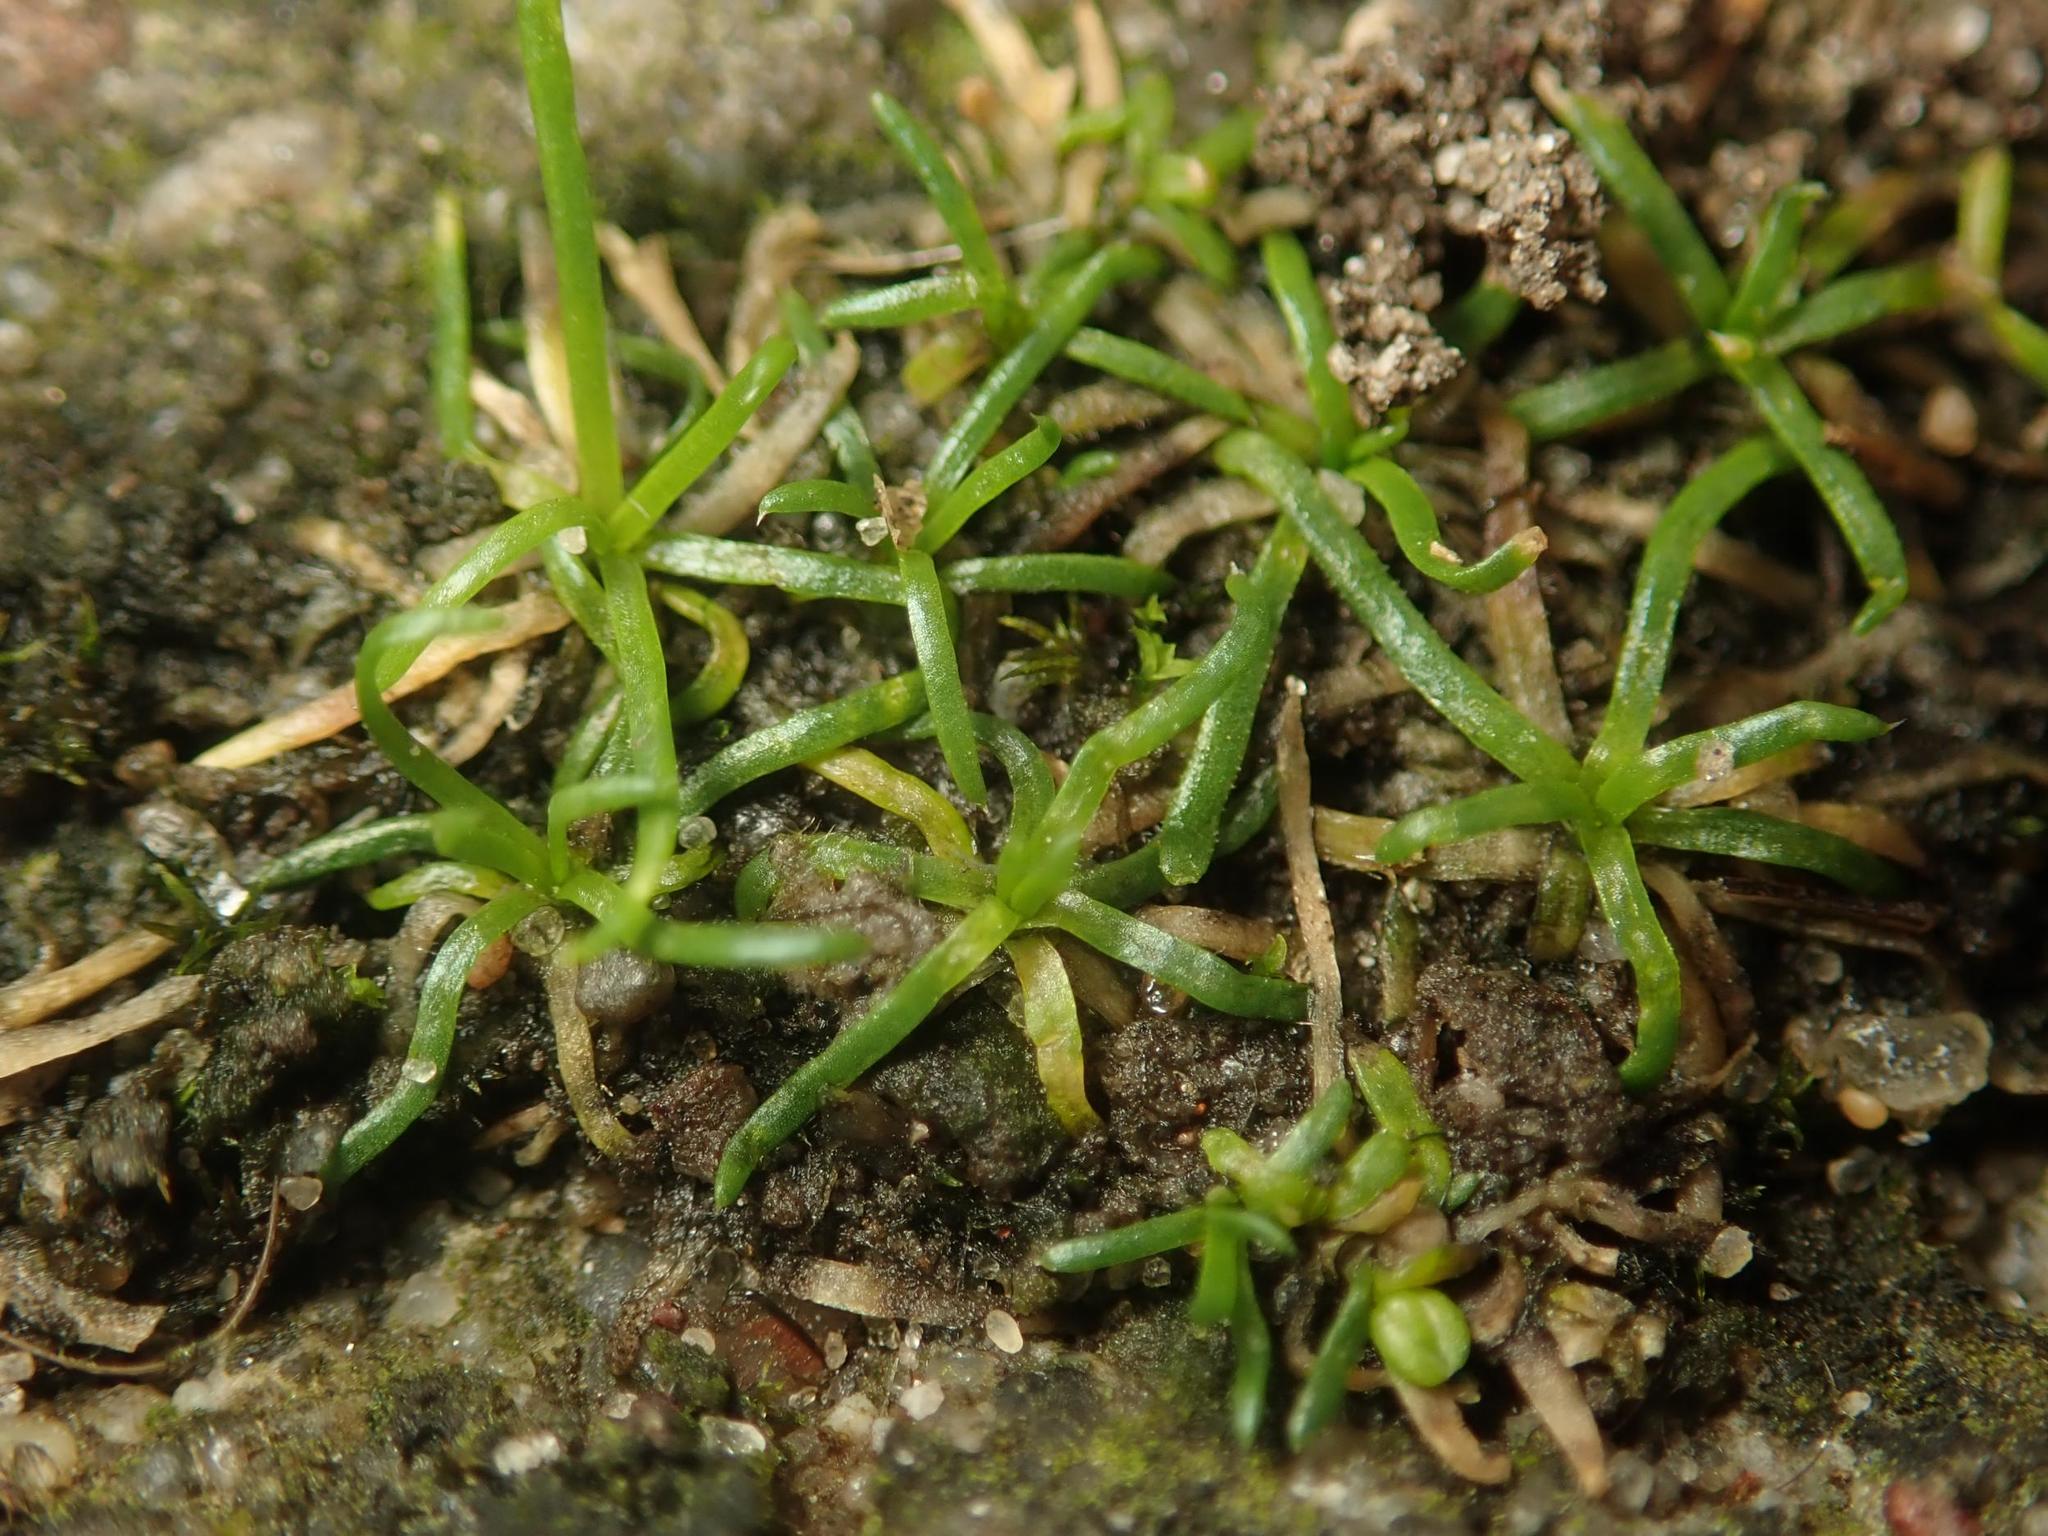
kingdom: Plantae
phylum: Tracheophyta
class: Magnoliopsida
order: Caryophyllales
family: Caryophyllaceae
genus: Sagina
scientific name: Sagina procumbens
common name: Procumbent pearlwort
